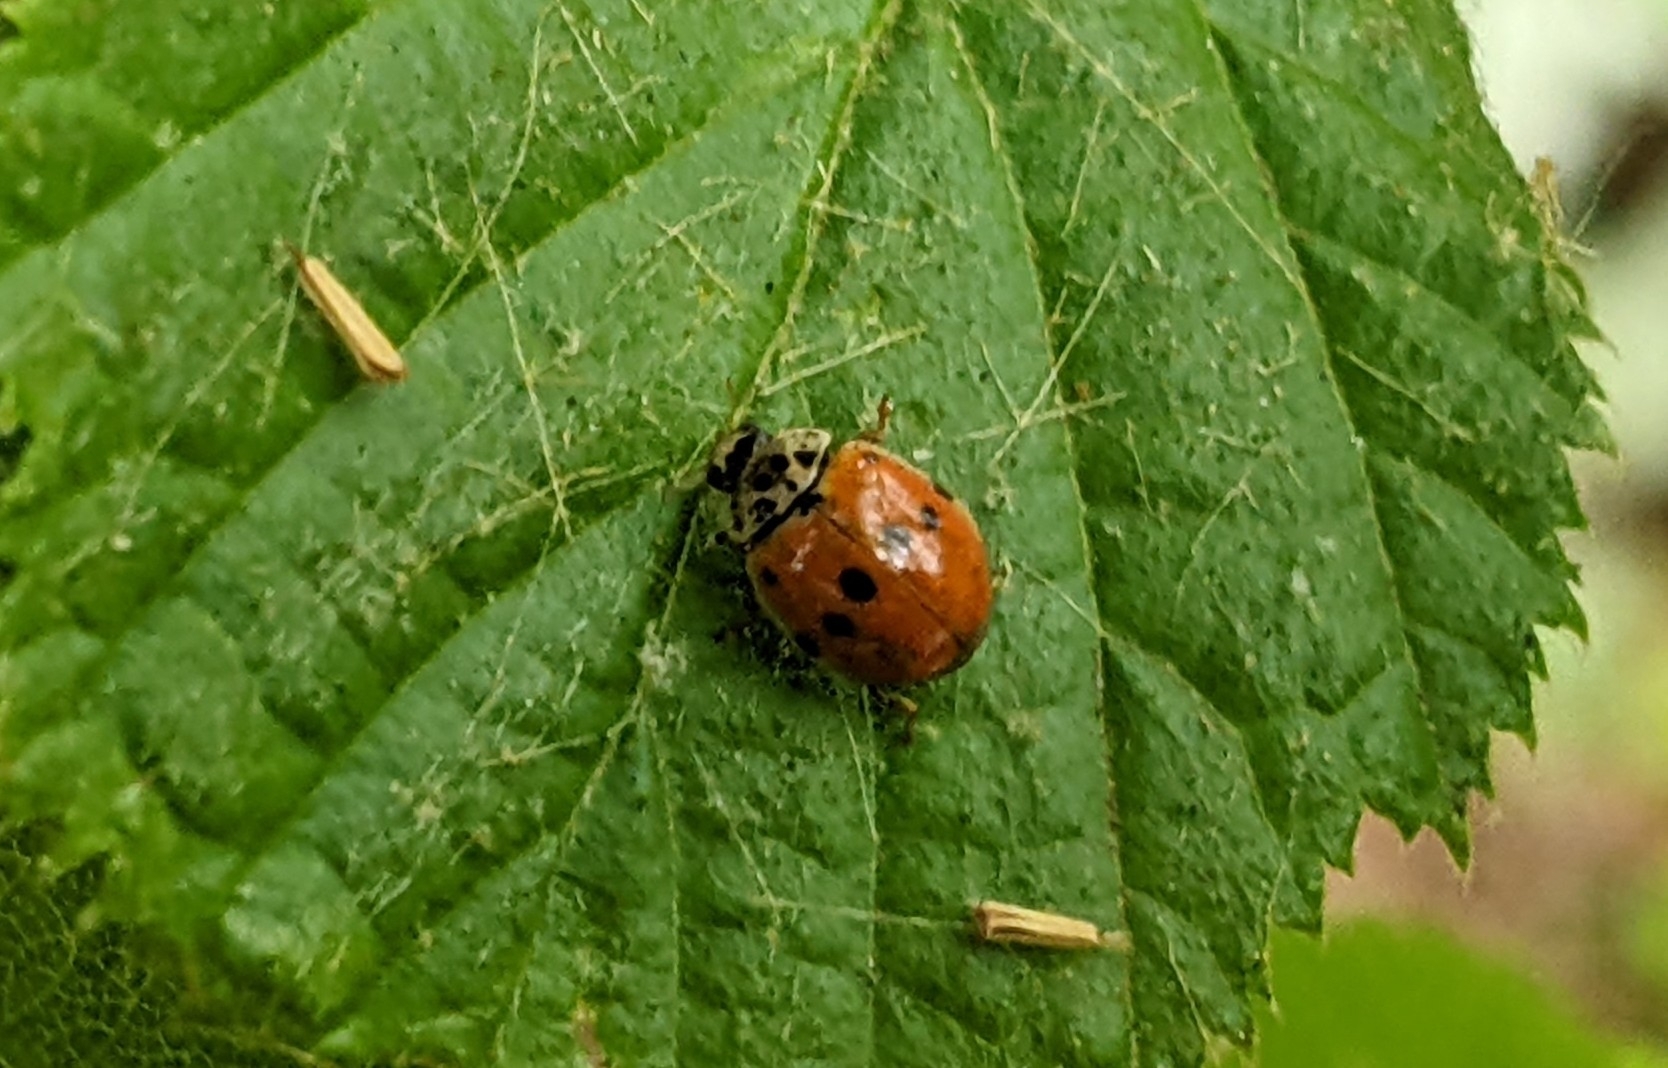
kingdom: Animalia
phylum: Arthropoda
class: Insecta
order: Coleoptera
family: Coccinellidae
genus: Adalia
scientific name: Adalia decempunctata
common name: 10-spot ladybird
